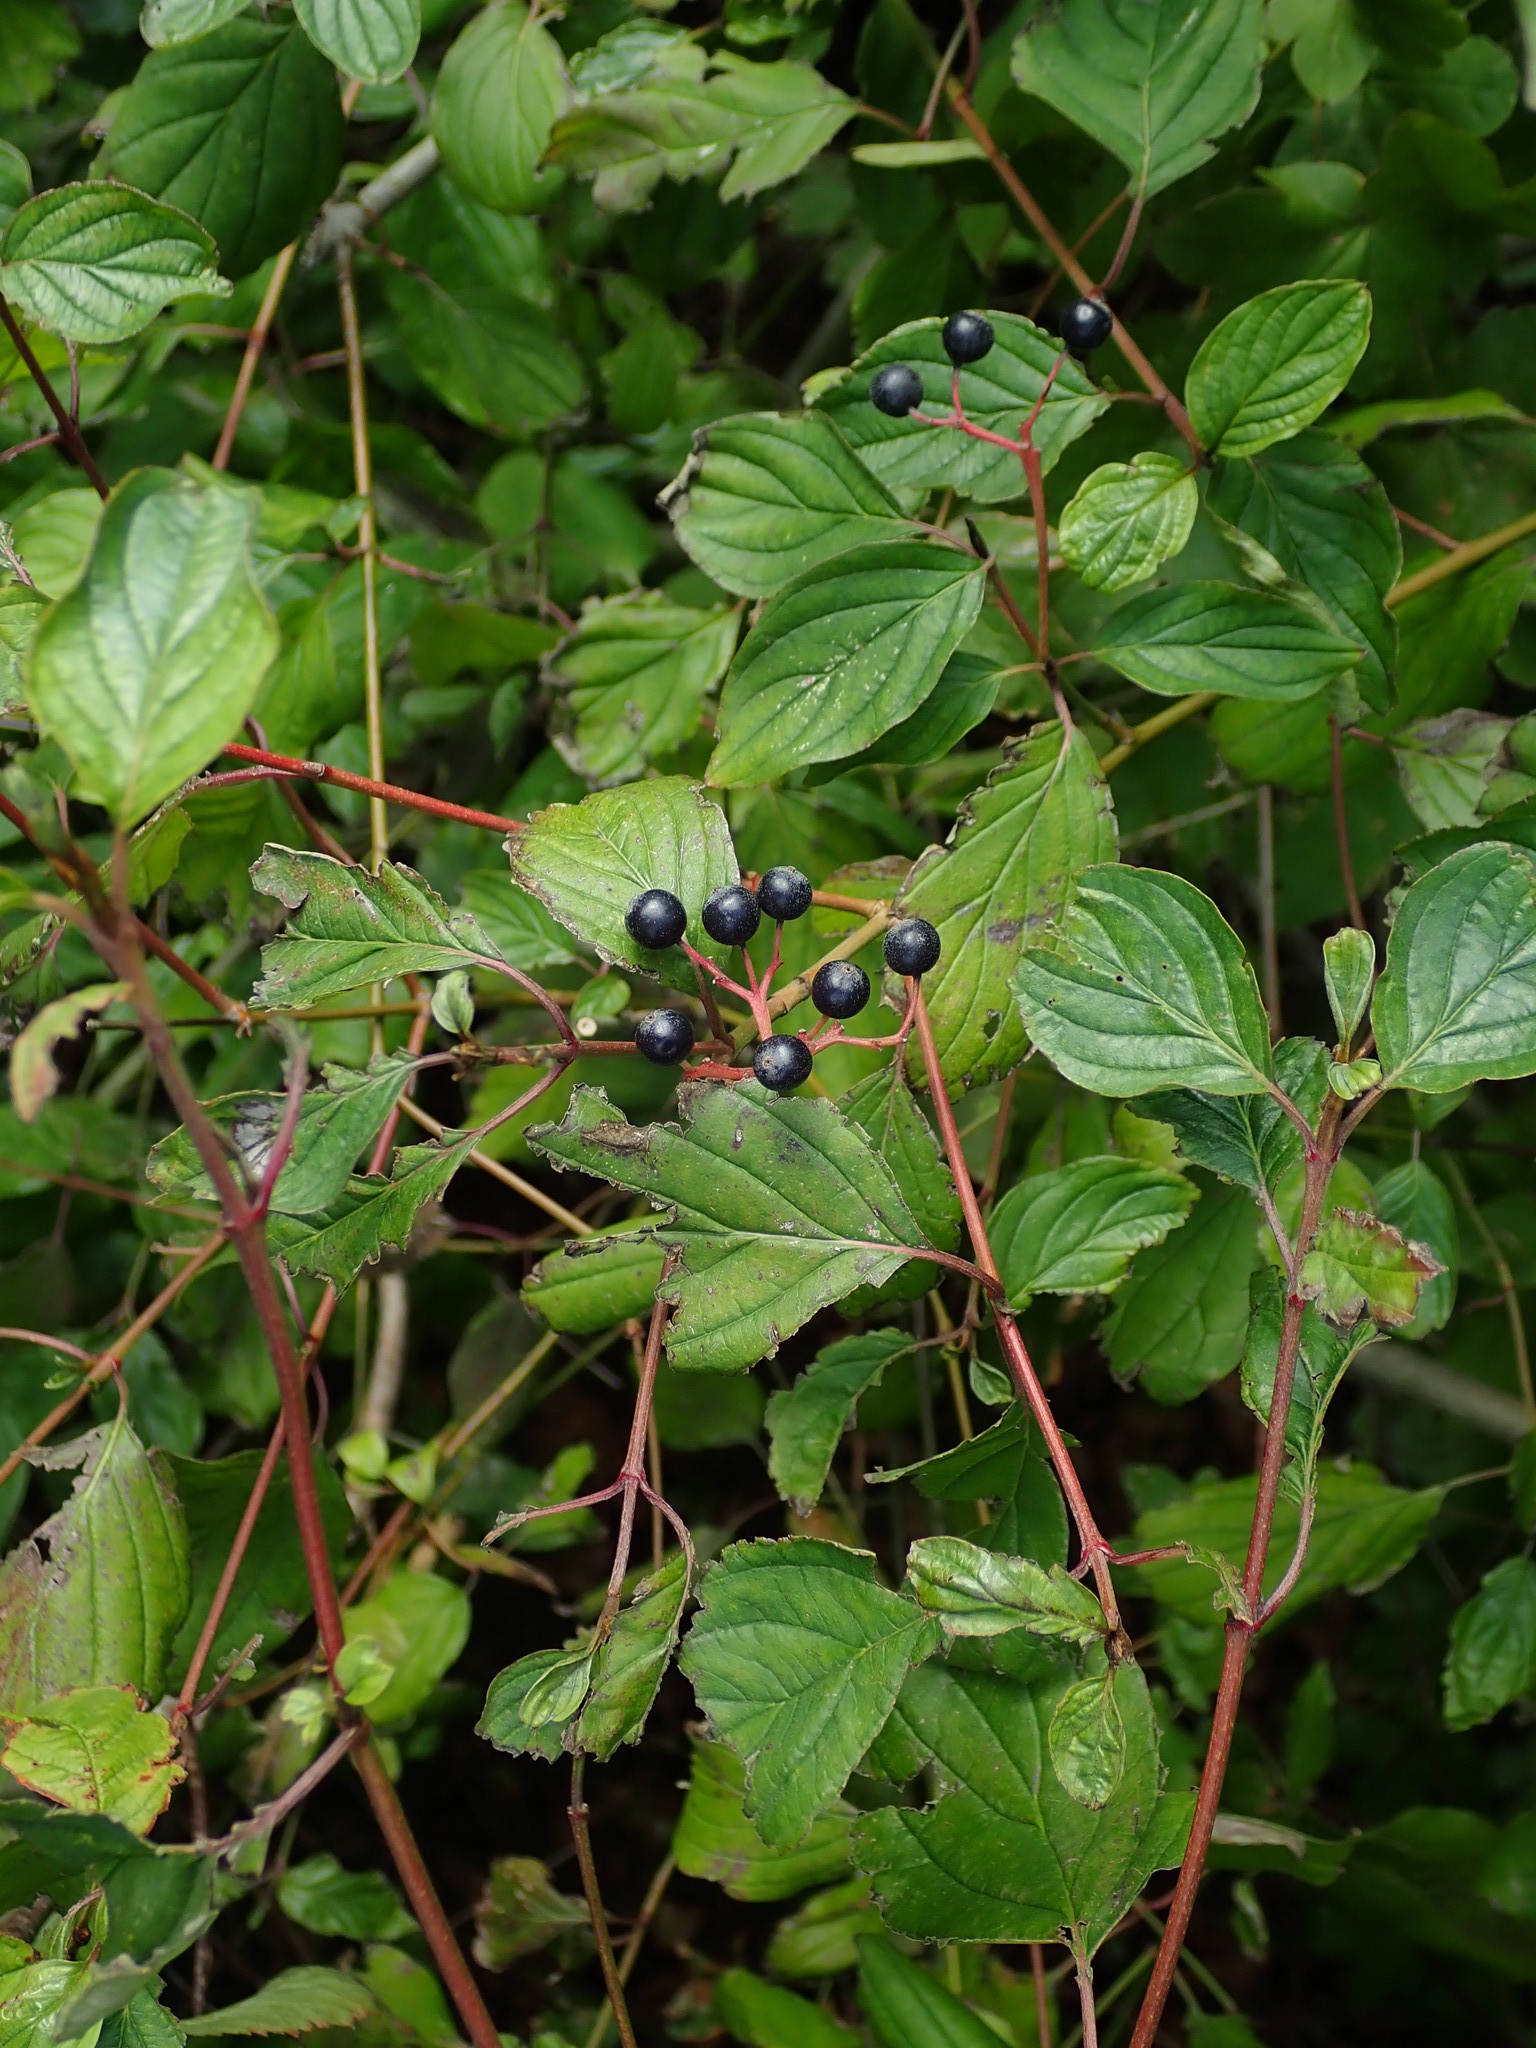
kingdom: Plantae
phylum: Tracheophyta
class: Magnoliopsida
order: Cornales
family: Cornaceae
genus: Cornus
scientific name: Cornus sanguinea
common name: Dogwood
